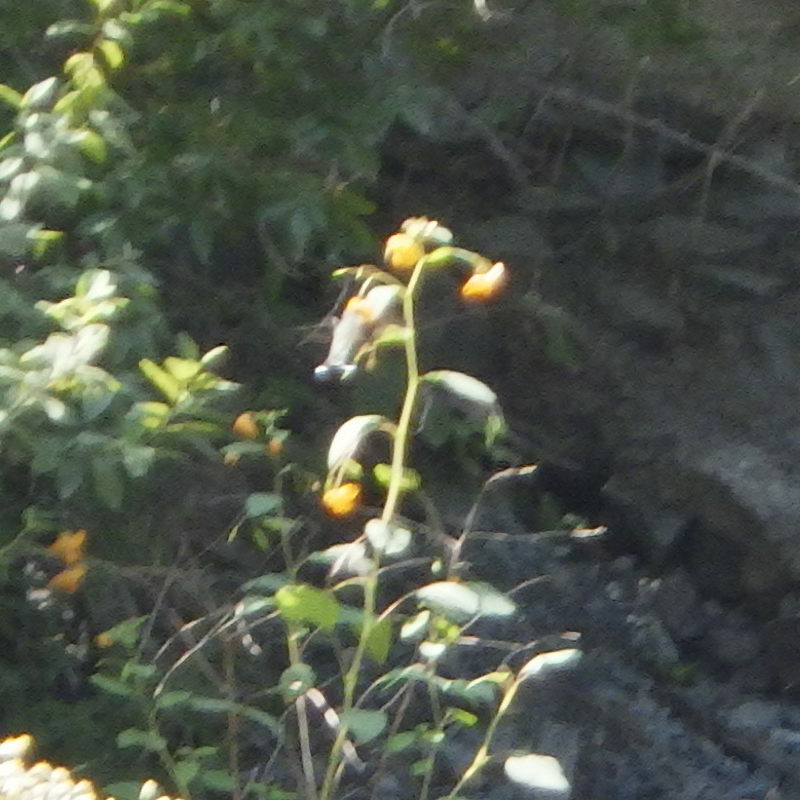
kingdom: Animalia
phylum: Chordata
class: Aves
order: Apodiformes
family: Trochilidae
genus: Archilochus
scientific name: Archilochus colubris
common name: Ruby-throated hummingbird
